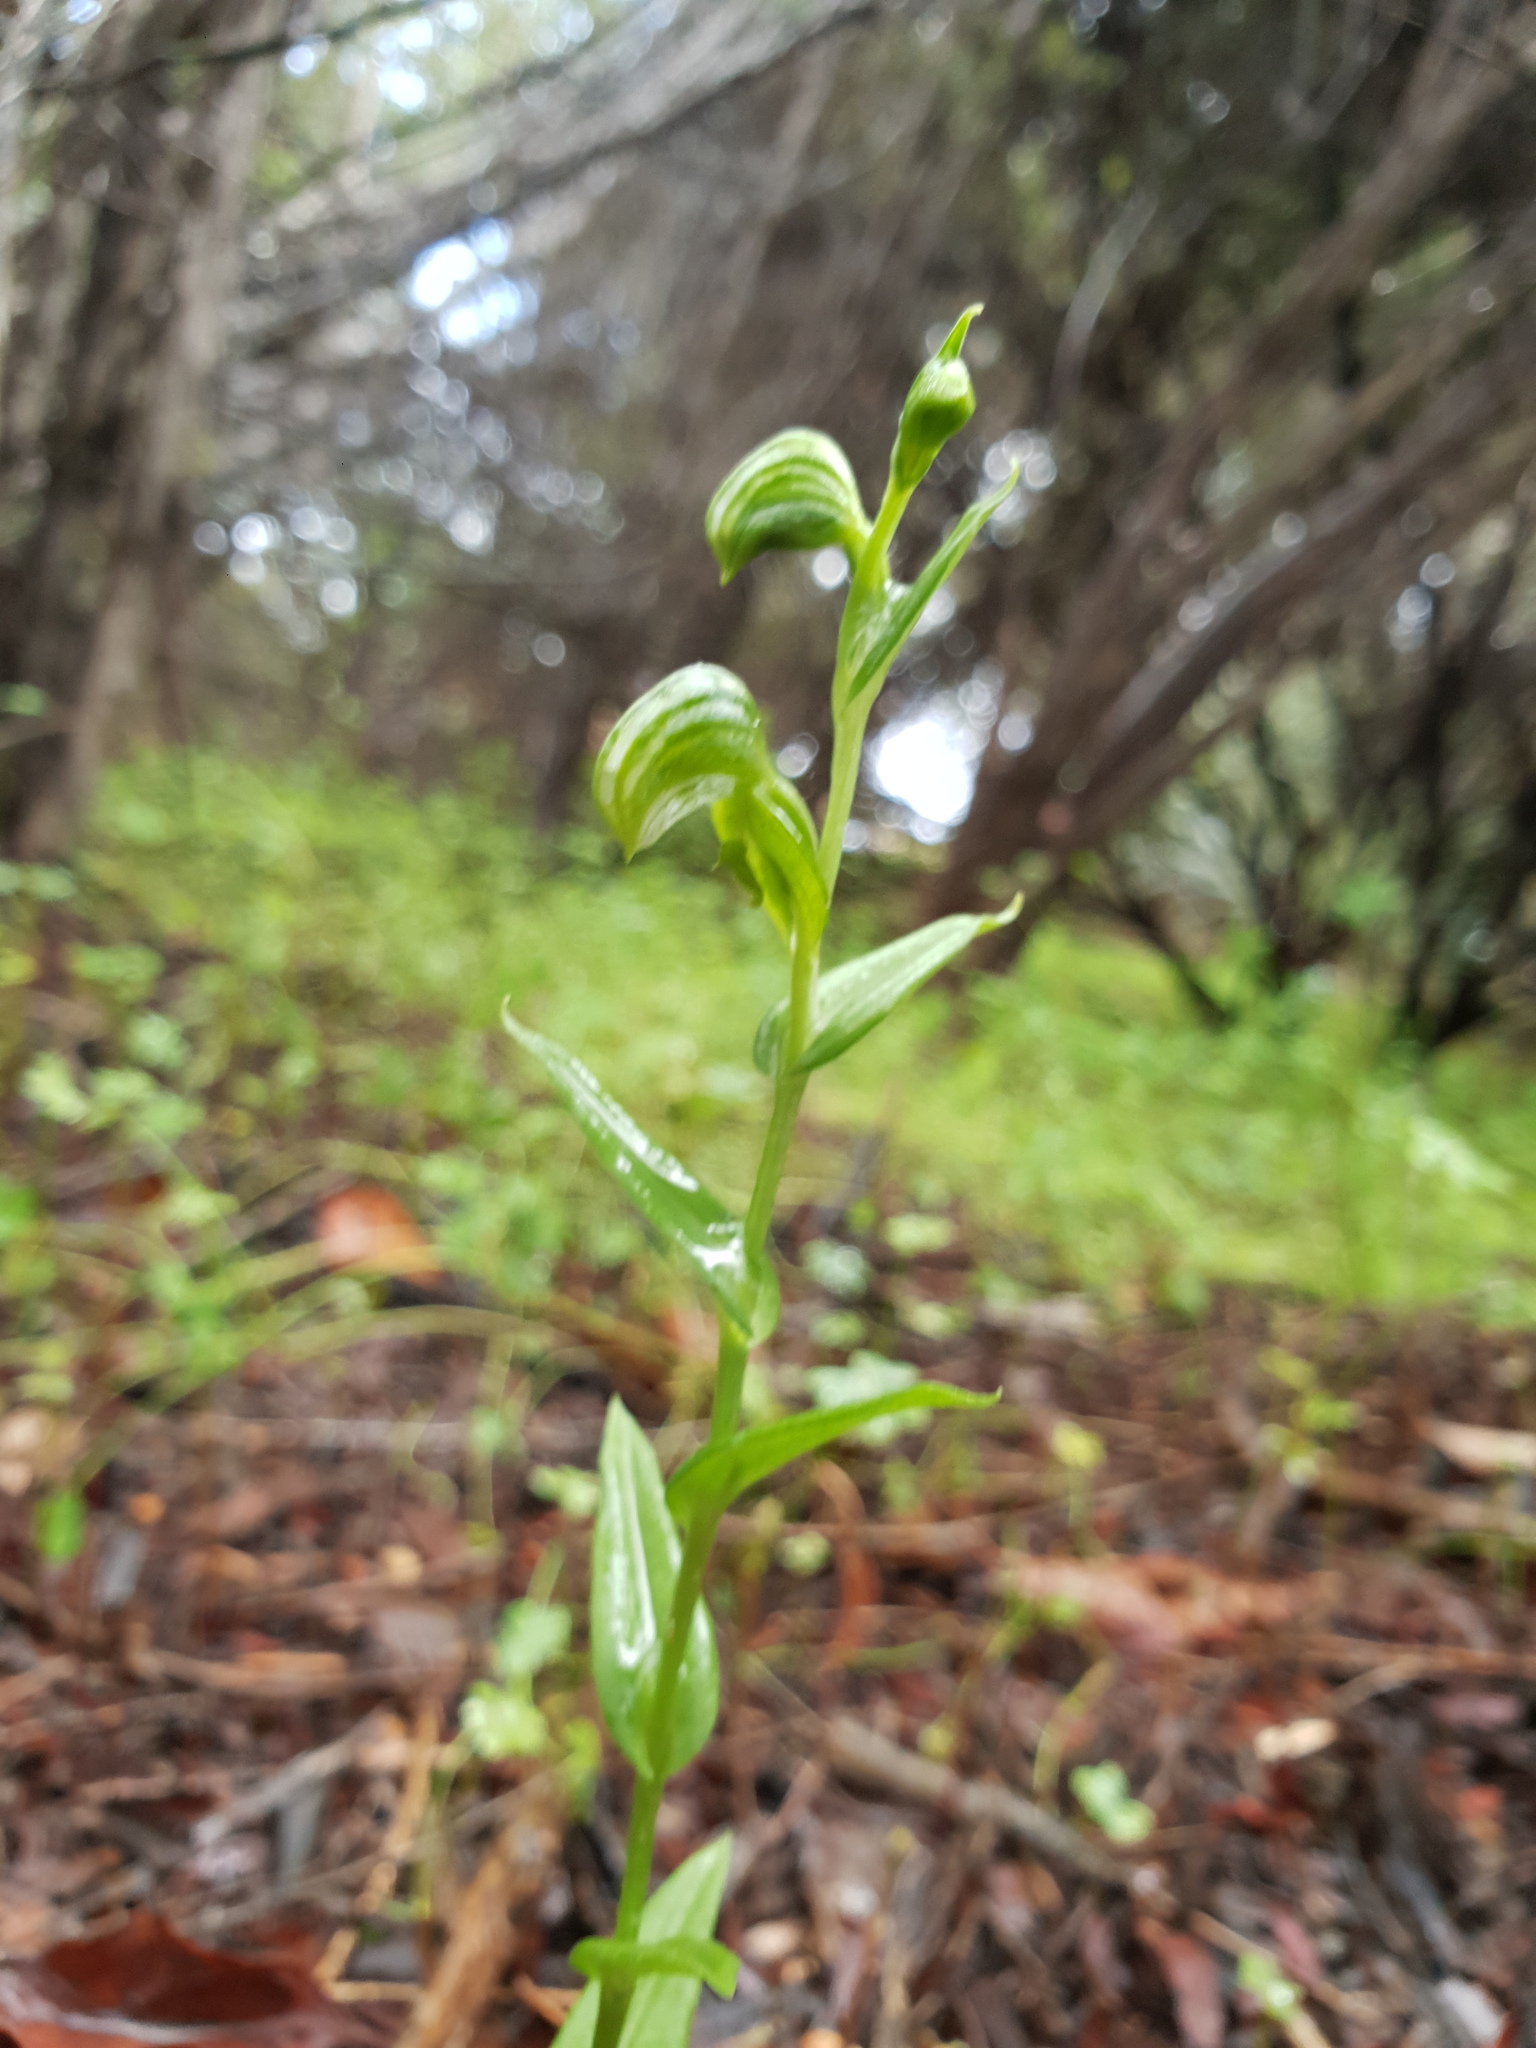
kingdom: Plantae
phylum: Tracheophyta
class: Liliopsida
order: Asparagales
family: Orchidaceae
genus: Pterostylis
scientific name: Pterostylis vittata
